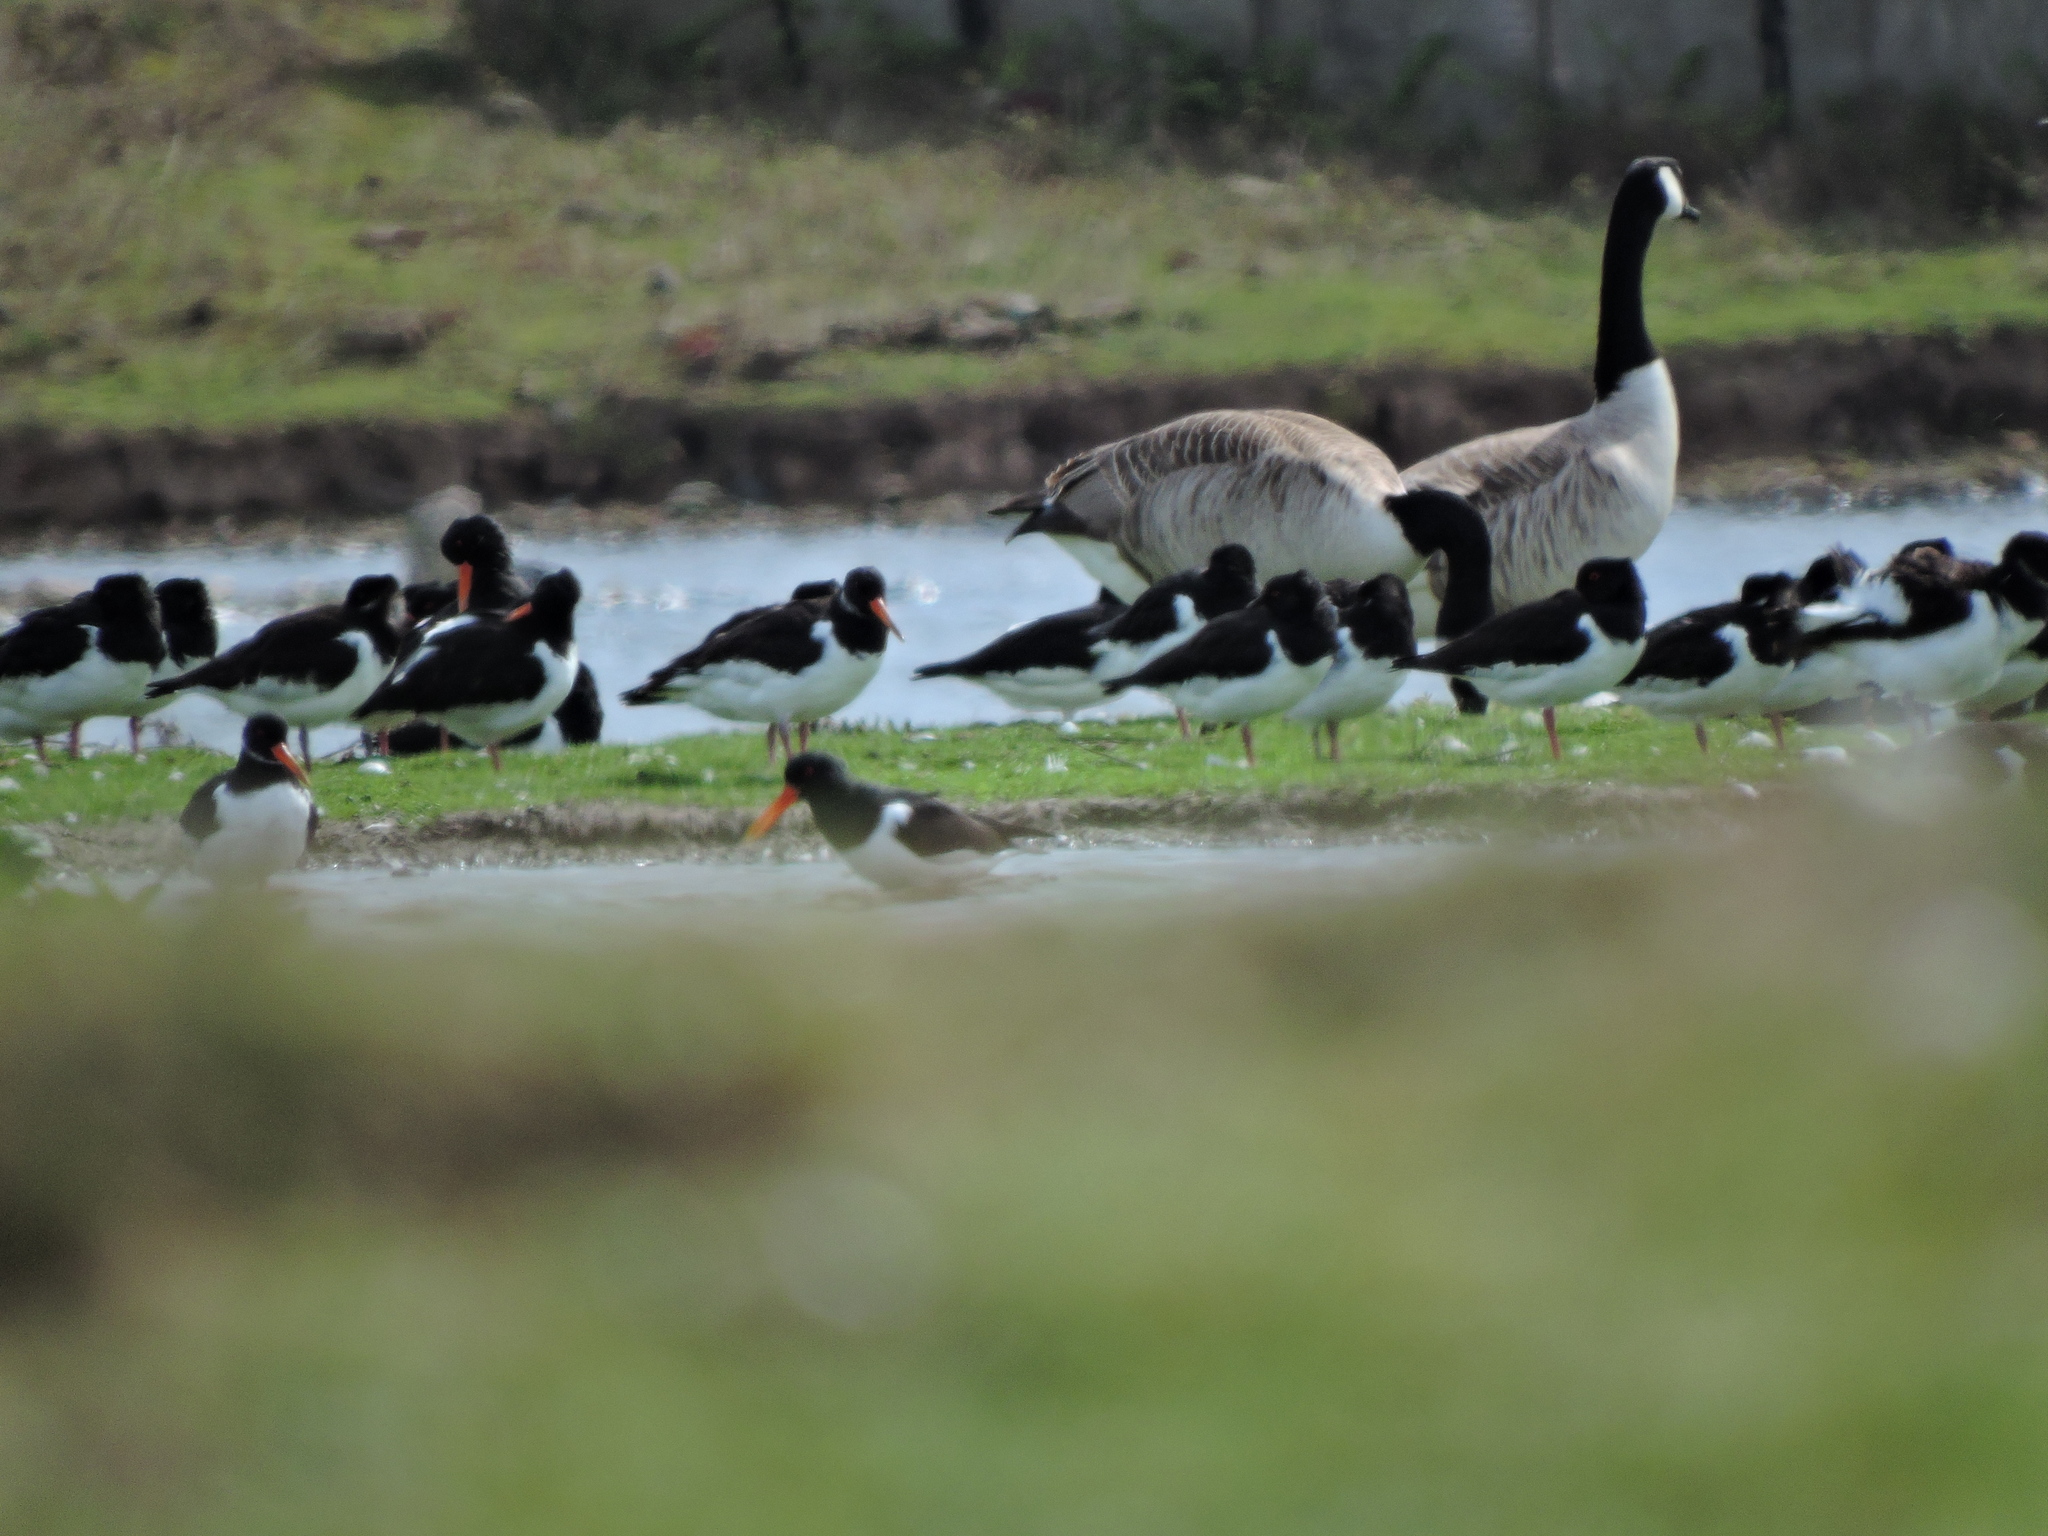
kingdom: Animalia
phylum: Chordata
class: Aves
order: Anseriformes
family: Anatidae
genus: Branta
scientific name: Branta canadensis
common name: Canada goose
